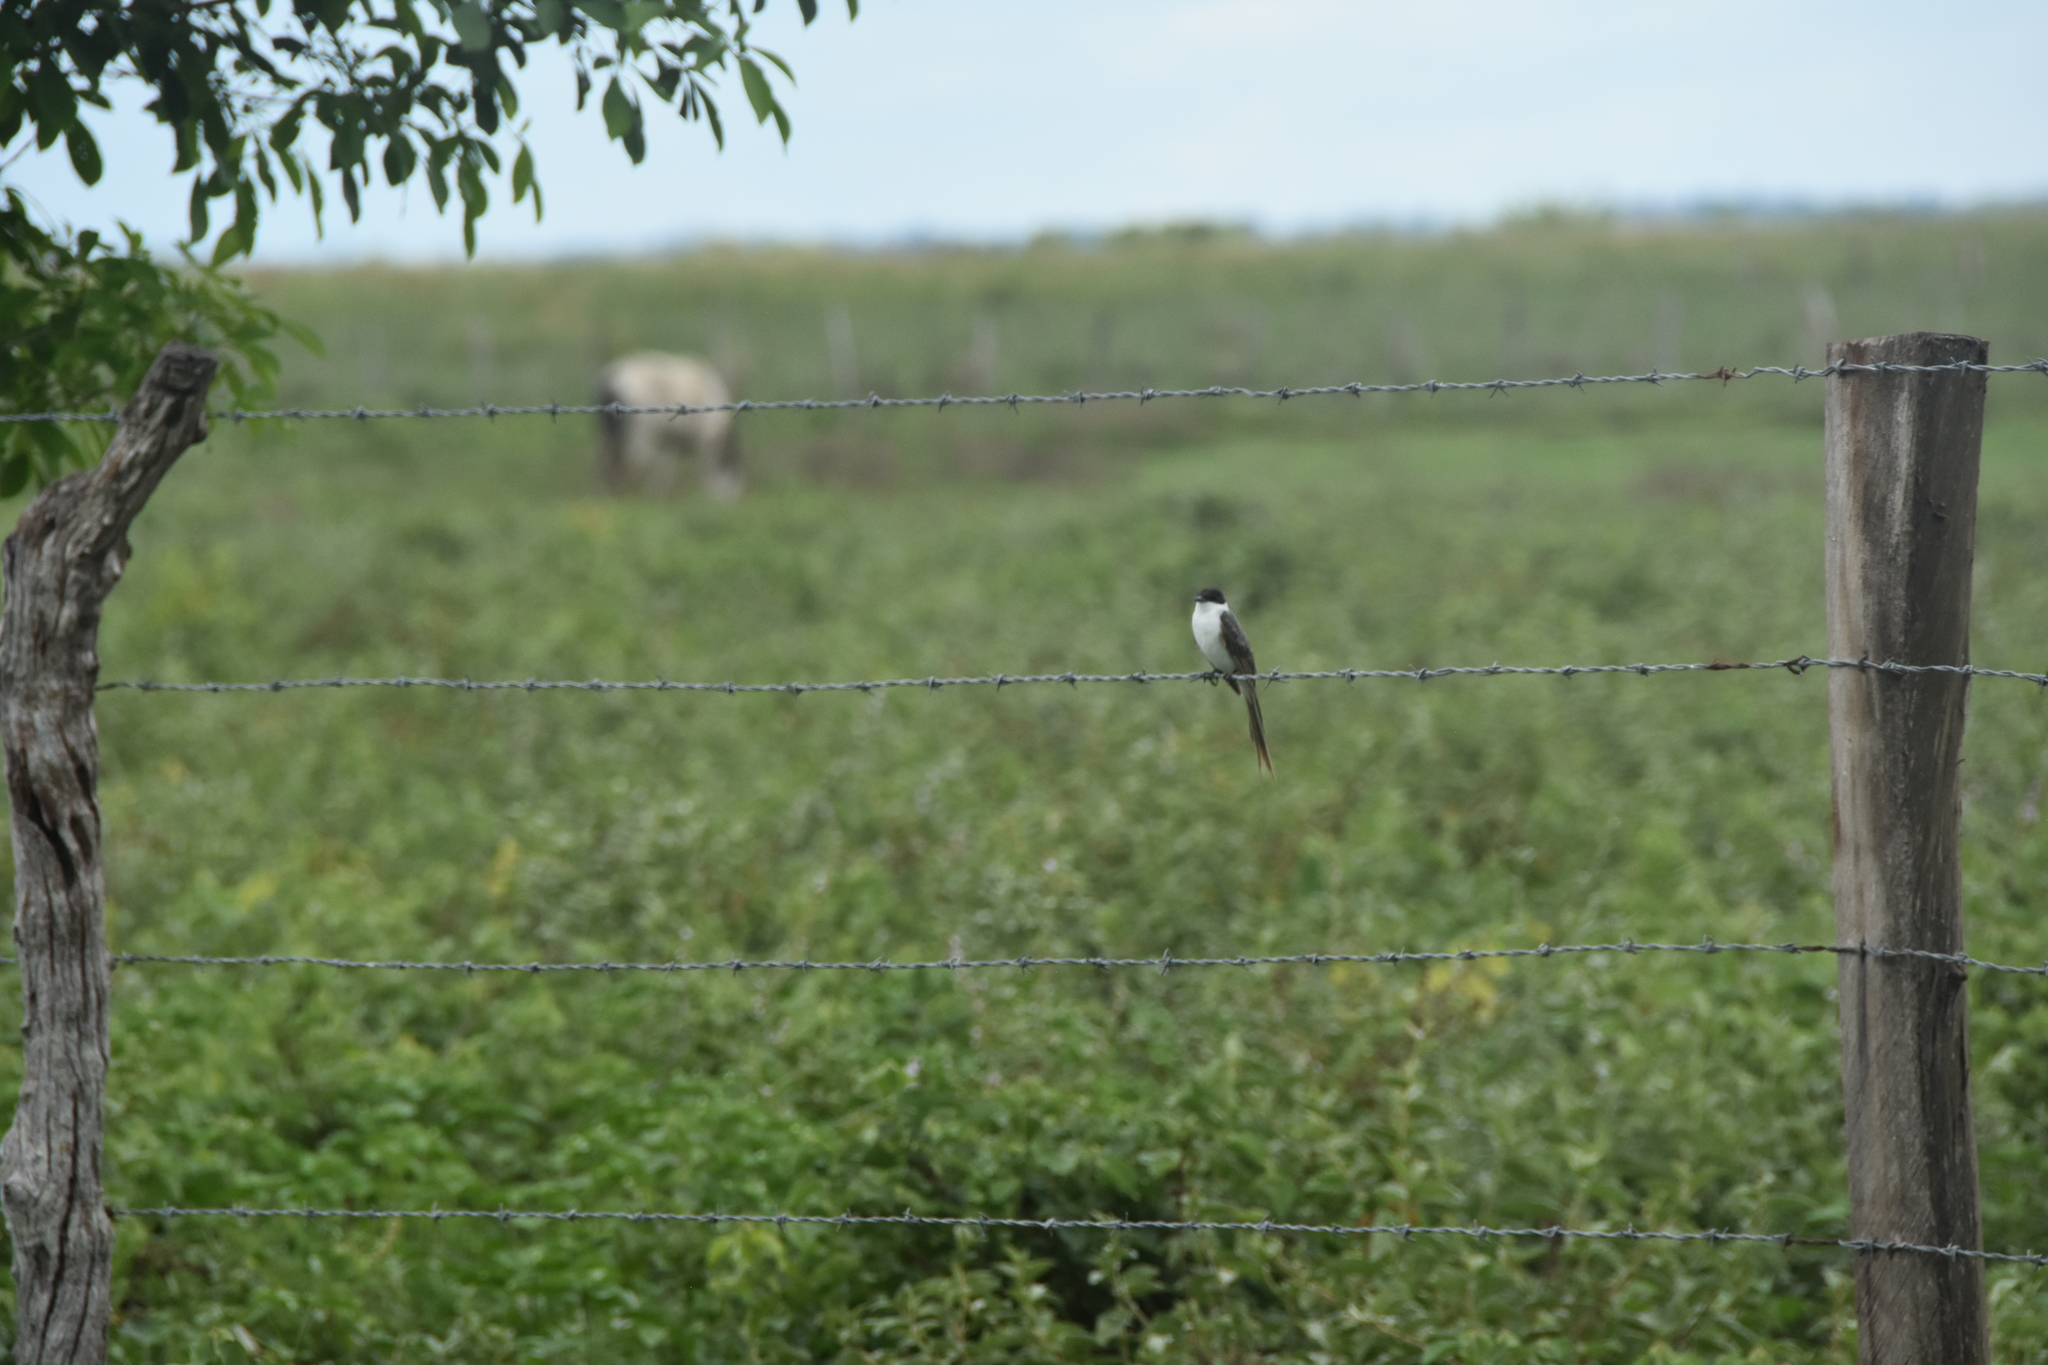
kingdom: Animalia
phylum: Chordata
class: Aves
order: Passeriformes
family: Tyrannidae
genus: Tyrannus
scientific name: Tyrannus savana
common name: Fork-tailed flycatcher
